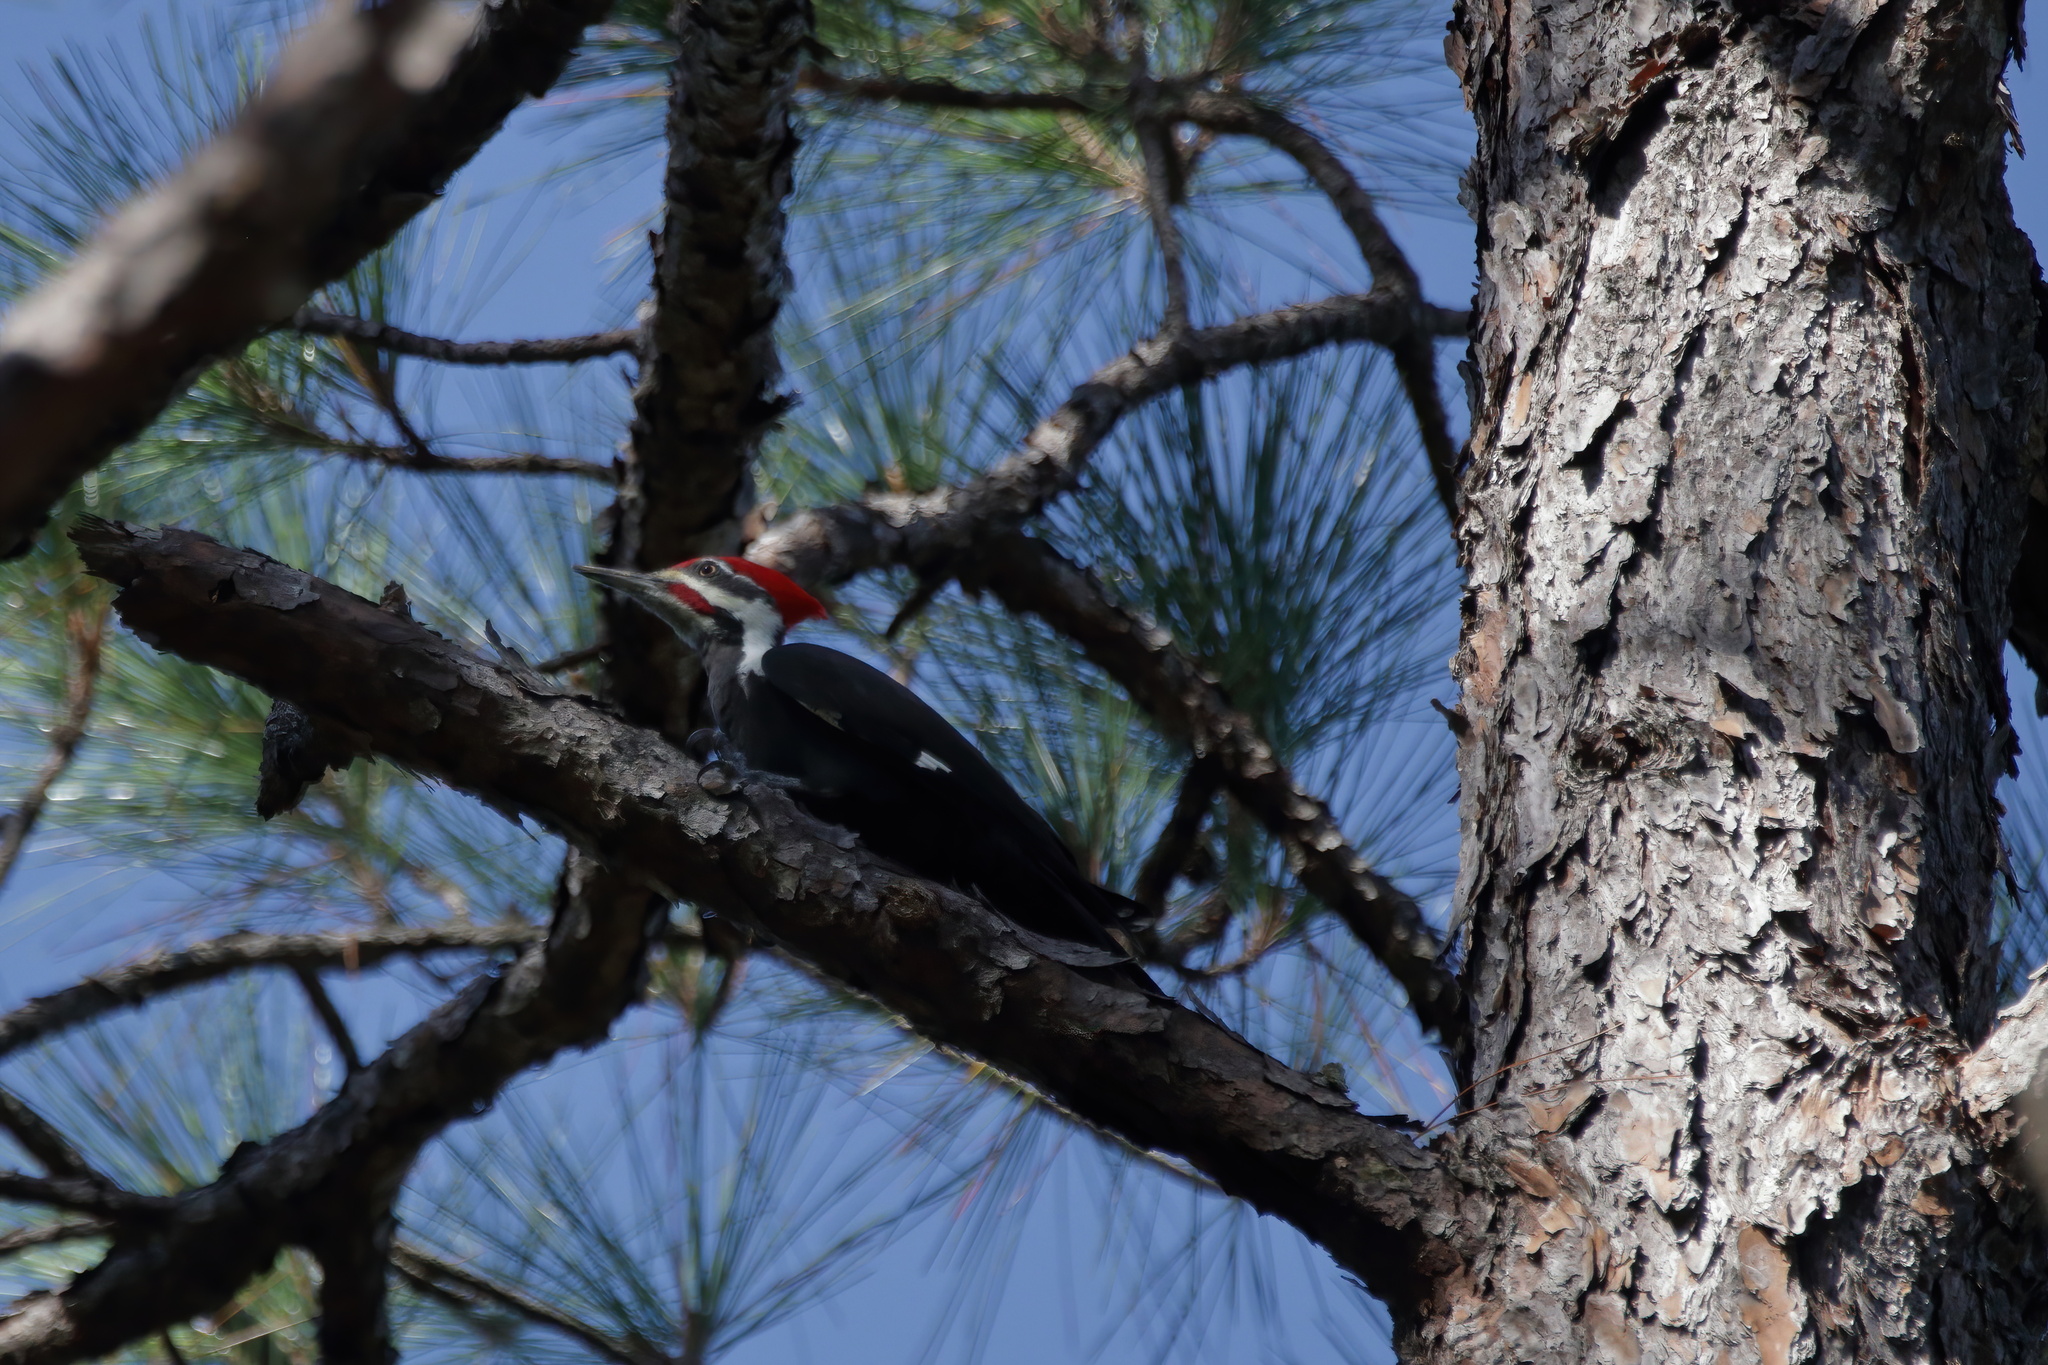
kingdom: Animalia
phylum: Chordata
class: Aves
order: Piciformes
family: Picidae
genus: Dryocopus
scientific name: Dryocopus pileatus
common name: Pileated woodpecker
